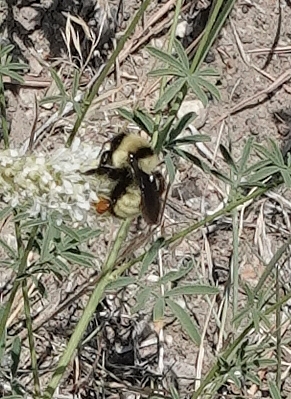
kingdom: Animalia
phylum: Arthropoda
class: Insecta
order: Hymenoptera
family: Apidae
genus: Bombus
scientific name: Bombus fervidus
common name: Yellow bumble bee
